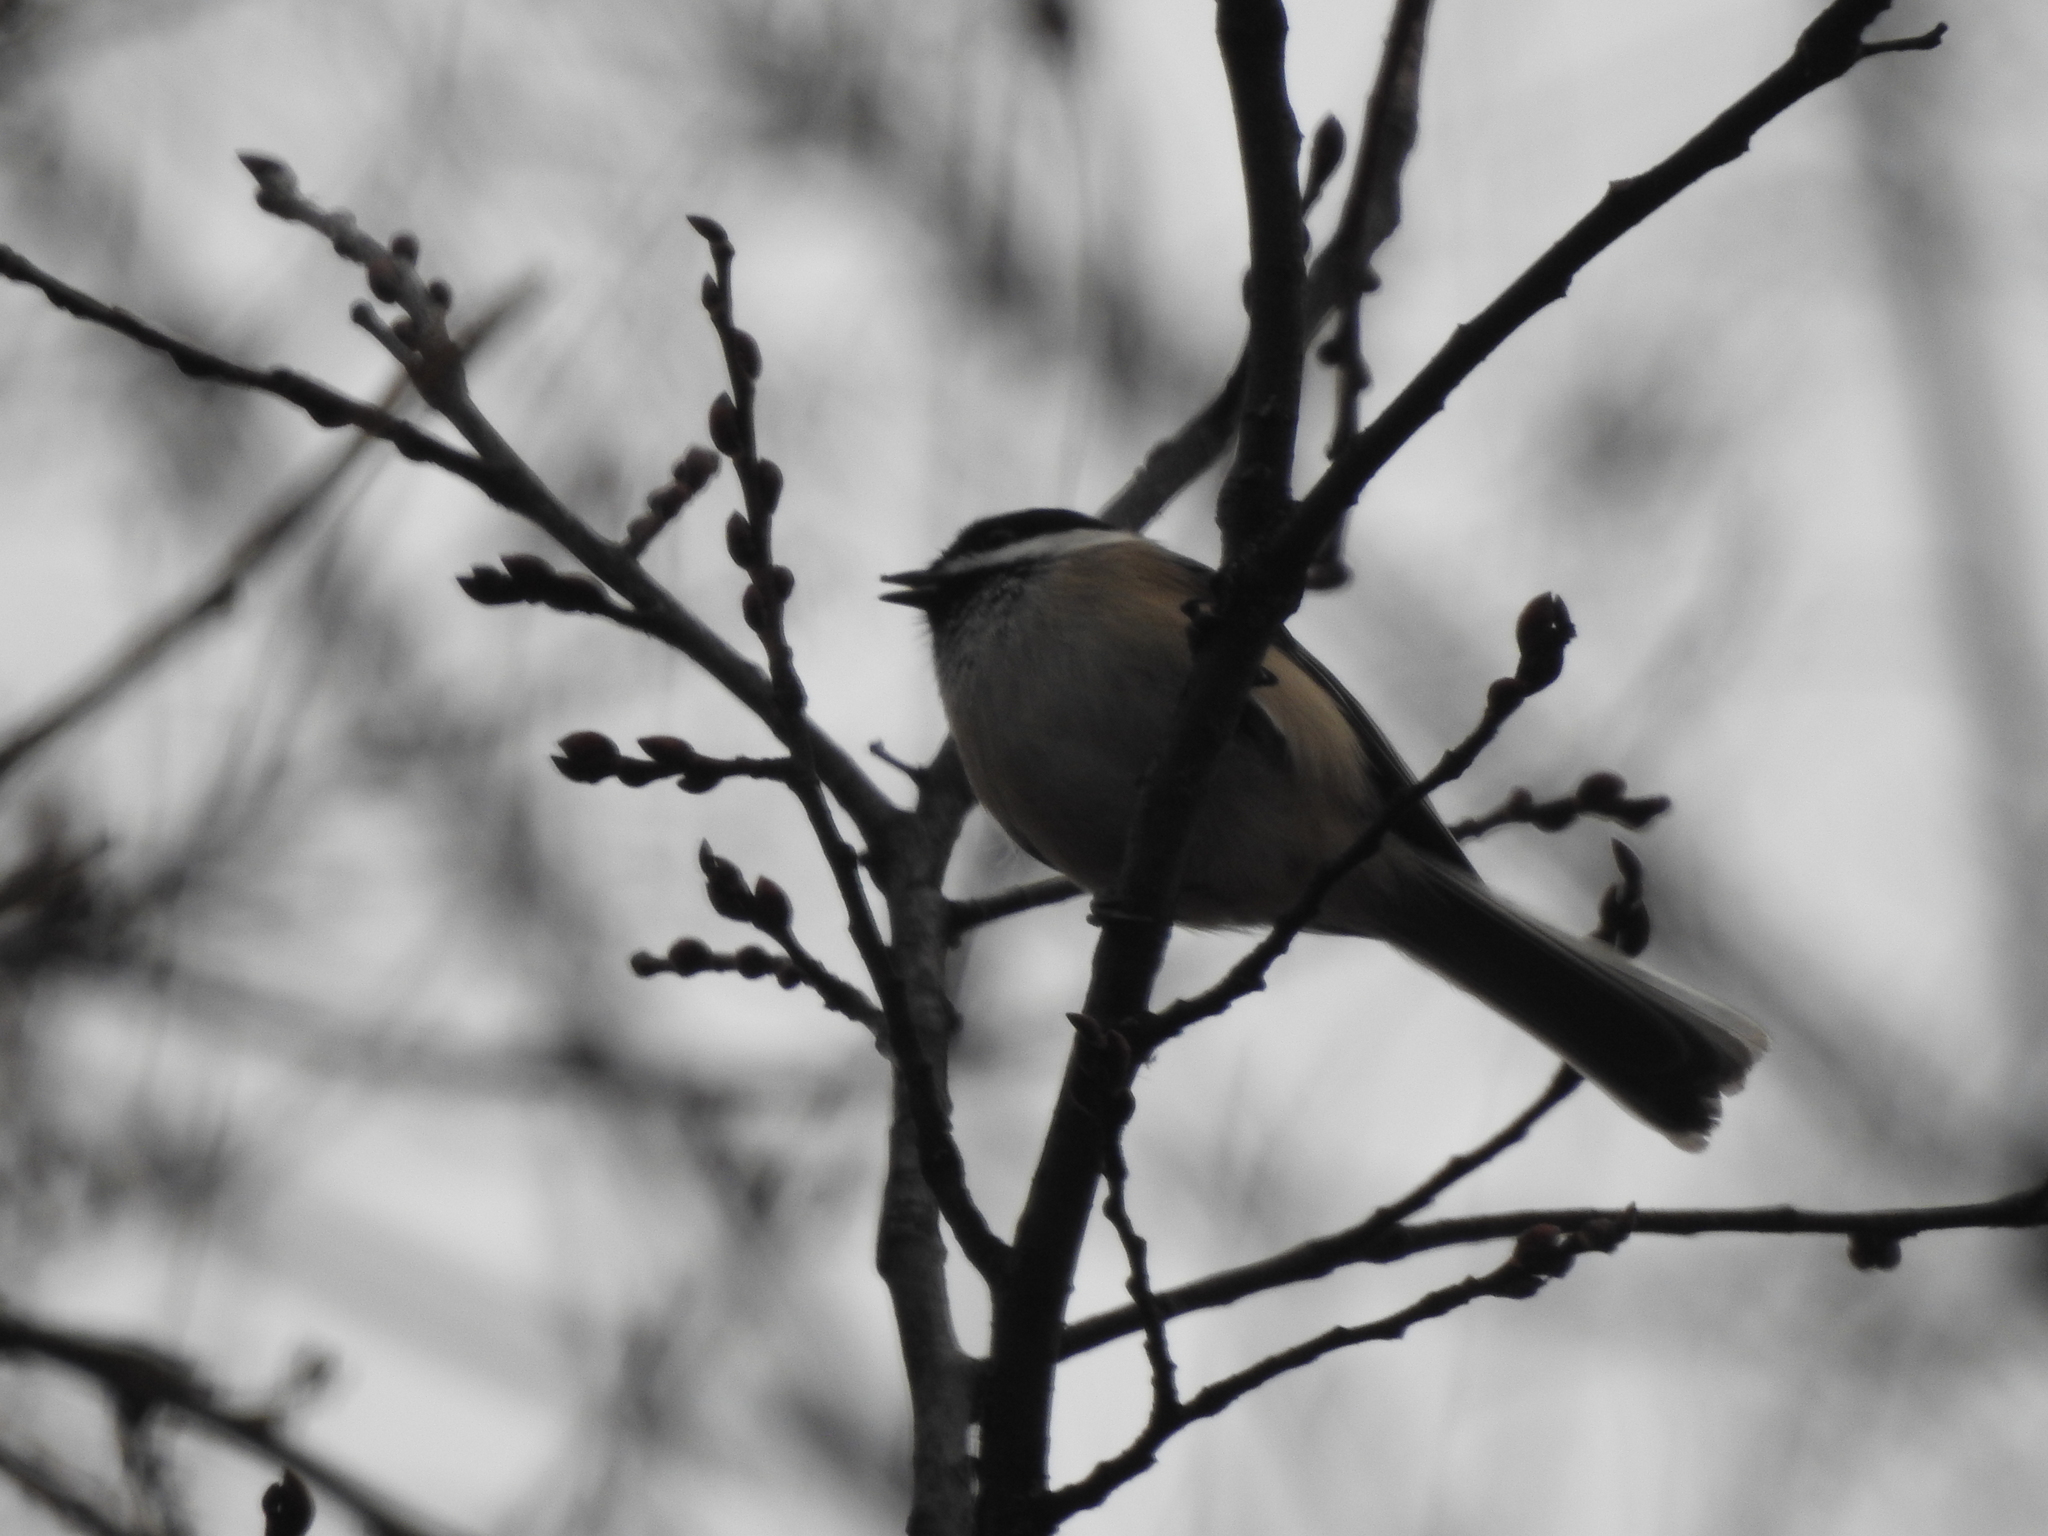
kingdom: Animalia
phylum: Chordata
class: Aves
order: Passeriformes
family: Paridae
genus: Poecile
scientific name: Poecile atricapillus
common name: Black-capped chickadee
